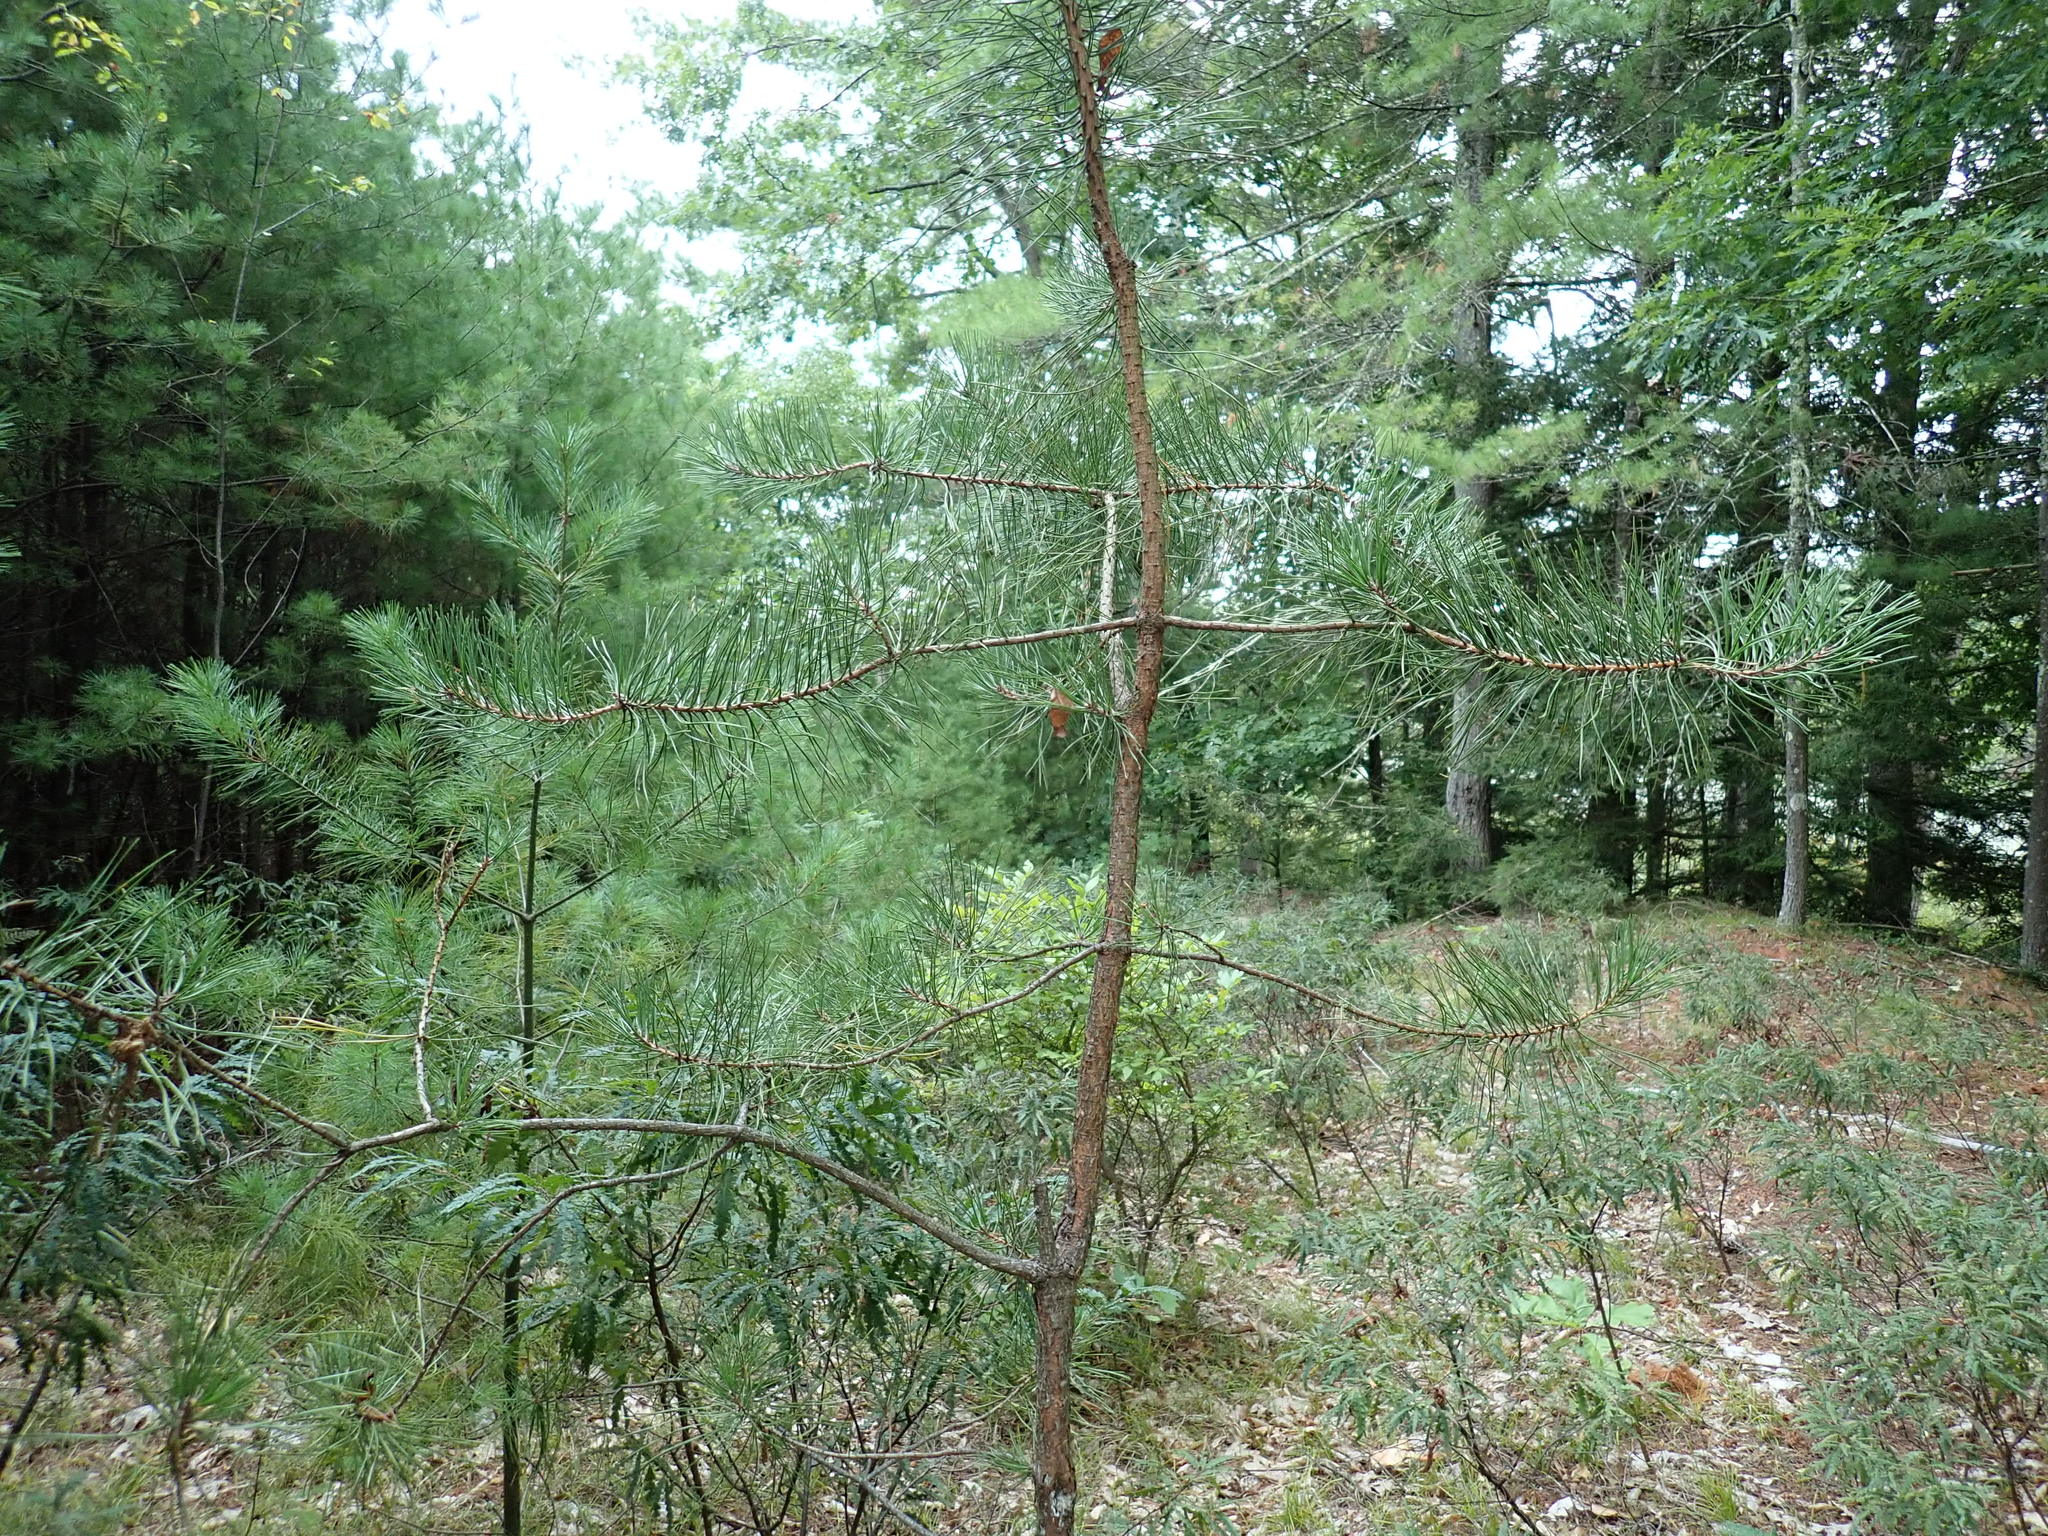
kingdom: Plantae
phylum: Tracheophyta
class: Pinopsida
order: Pinales
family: Pinaceae
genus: Pinus
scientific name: Pinus rigida
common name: Pitch pine
